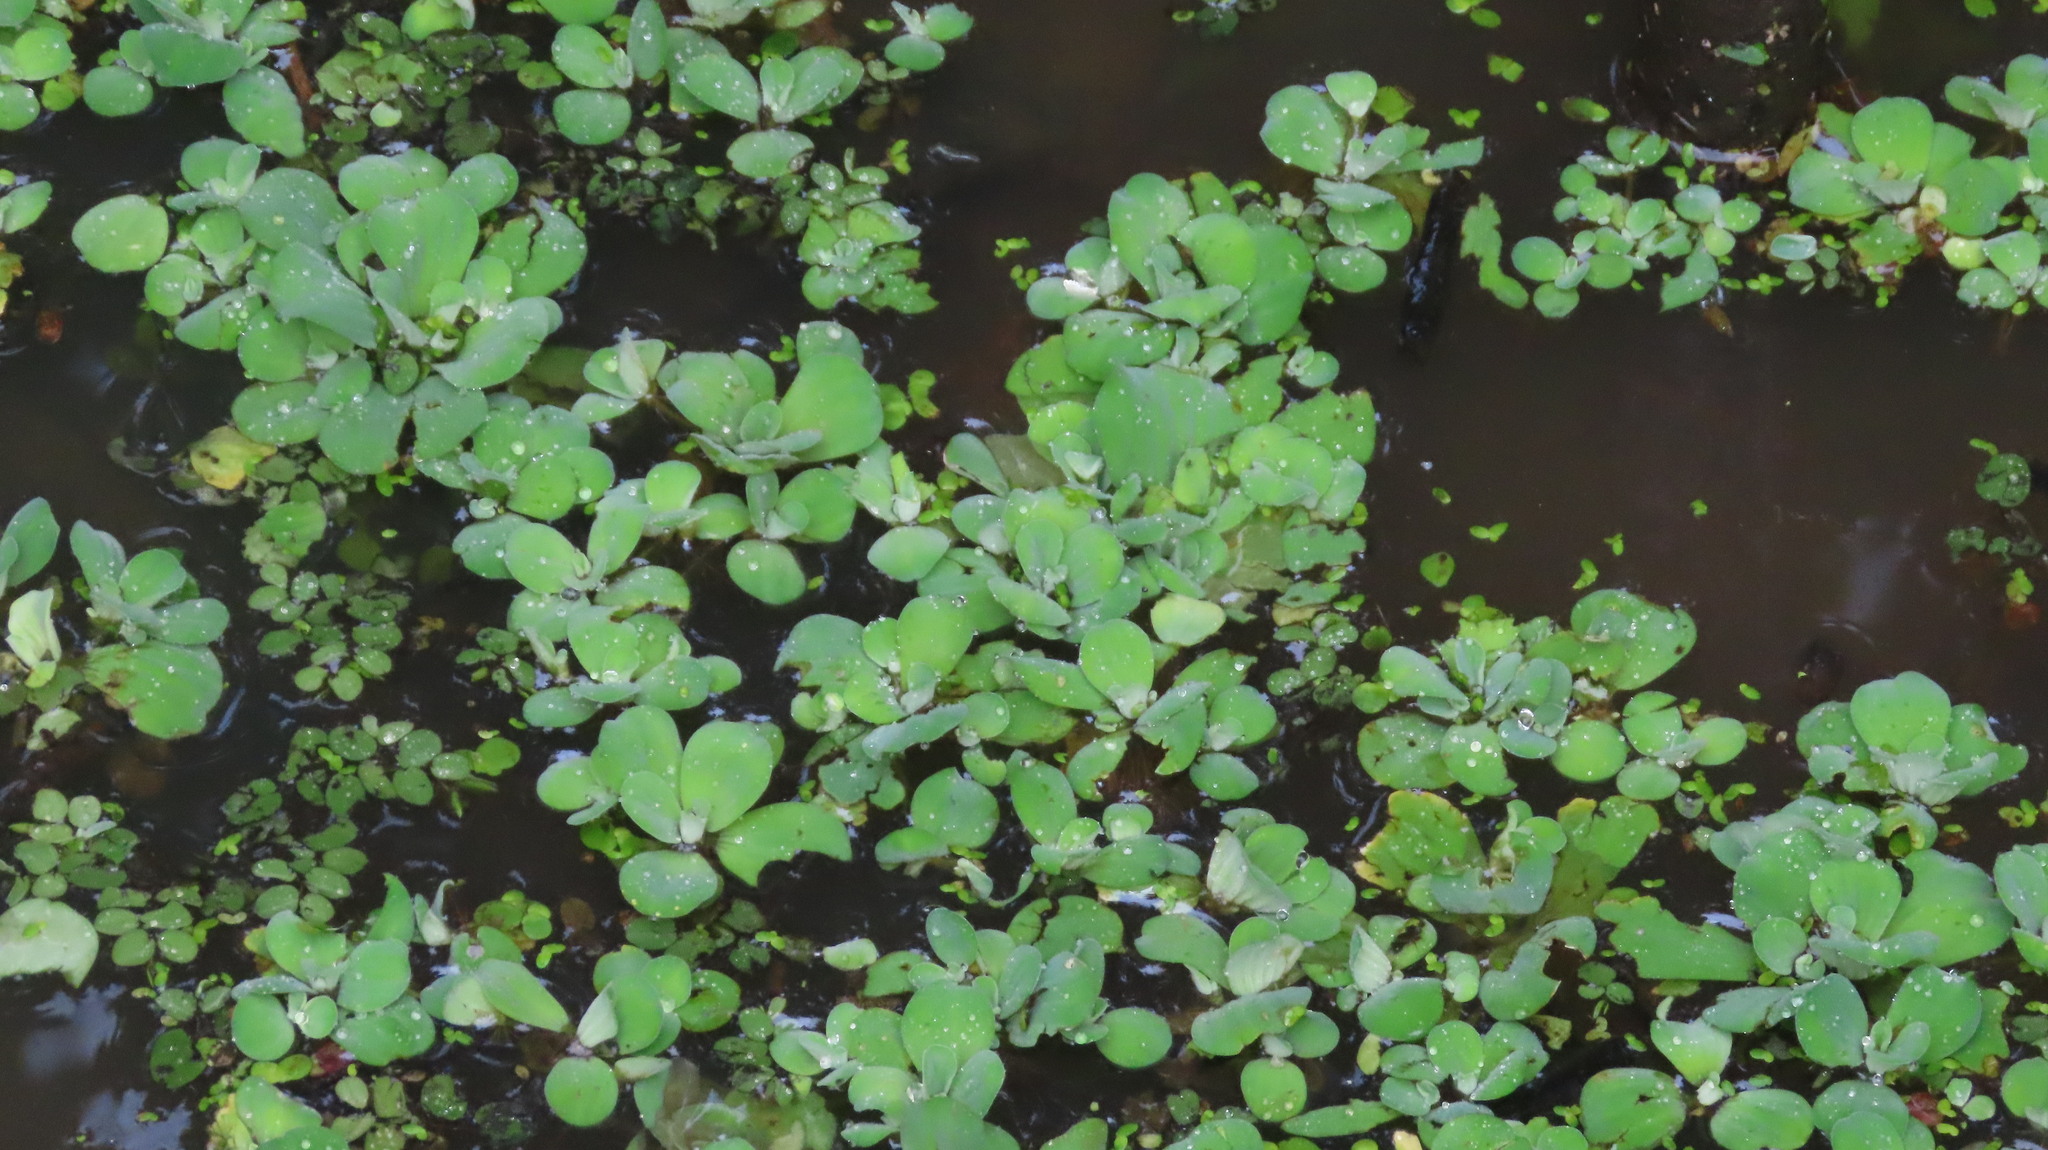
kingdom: Plantae
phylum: Tracheophyta
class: Liliopsida
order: Alismatales
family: Araceae
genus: Pistia
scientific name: Pistia stratiotes
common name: Water lettuce
